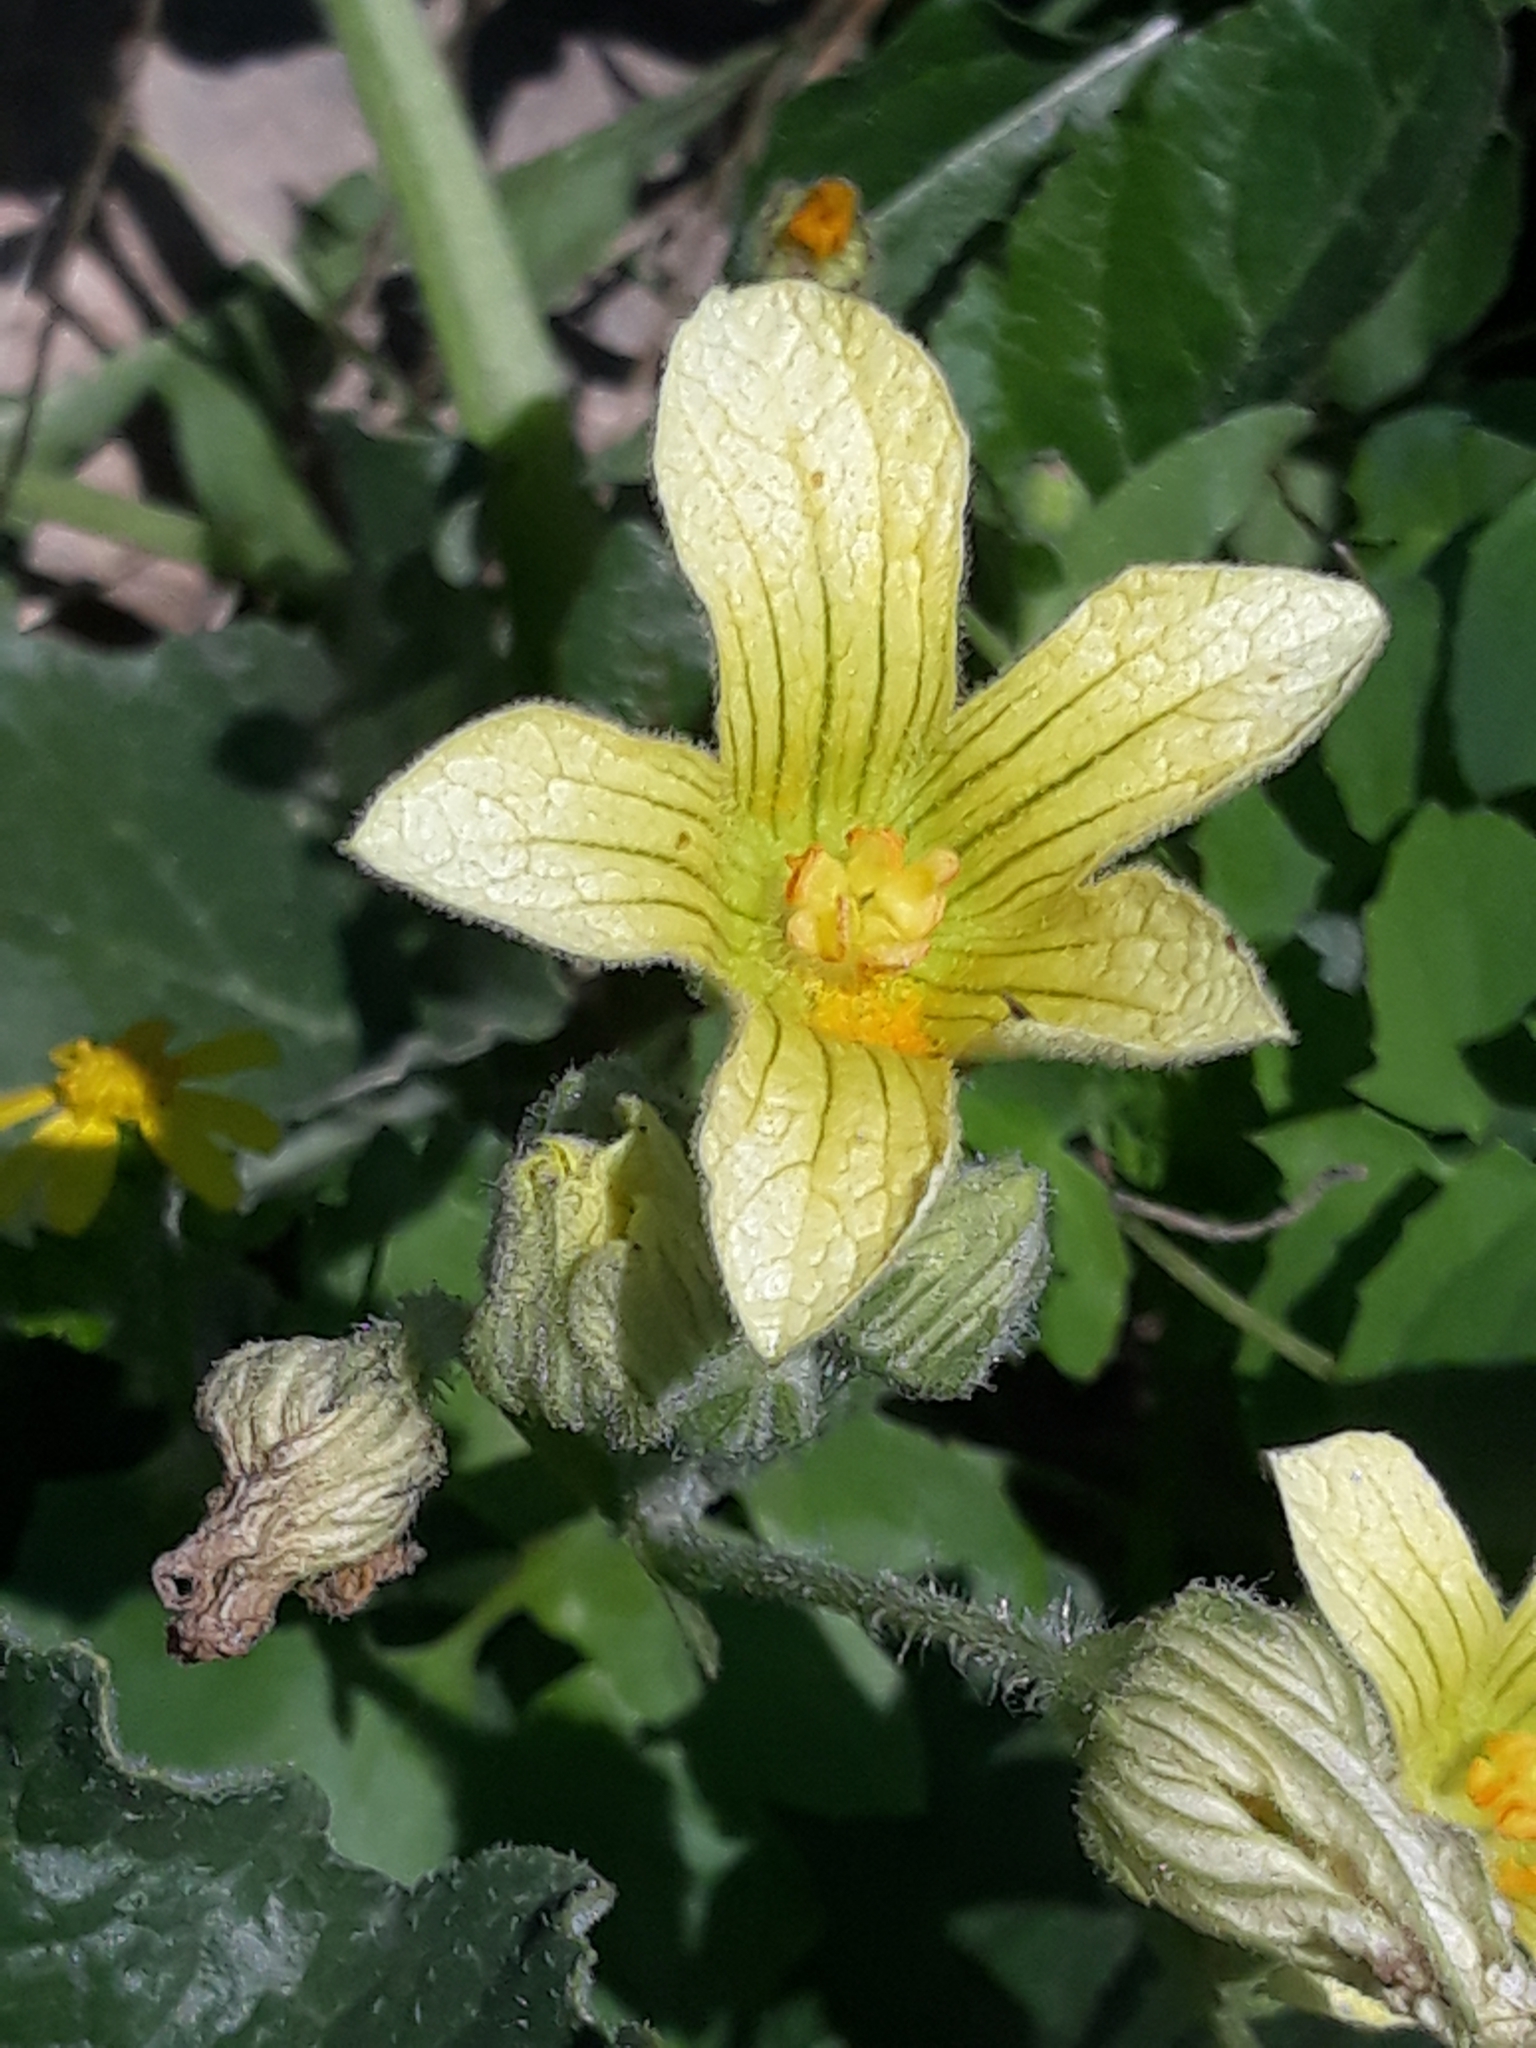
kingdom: Plantae
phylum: Tracheophyta
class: Magnoliopsida
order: Cucurbitales
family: Cucurbitaceae
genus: Ecballium
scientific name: Ecballium elaterium
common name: Squirting cucumber
